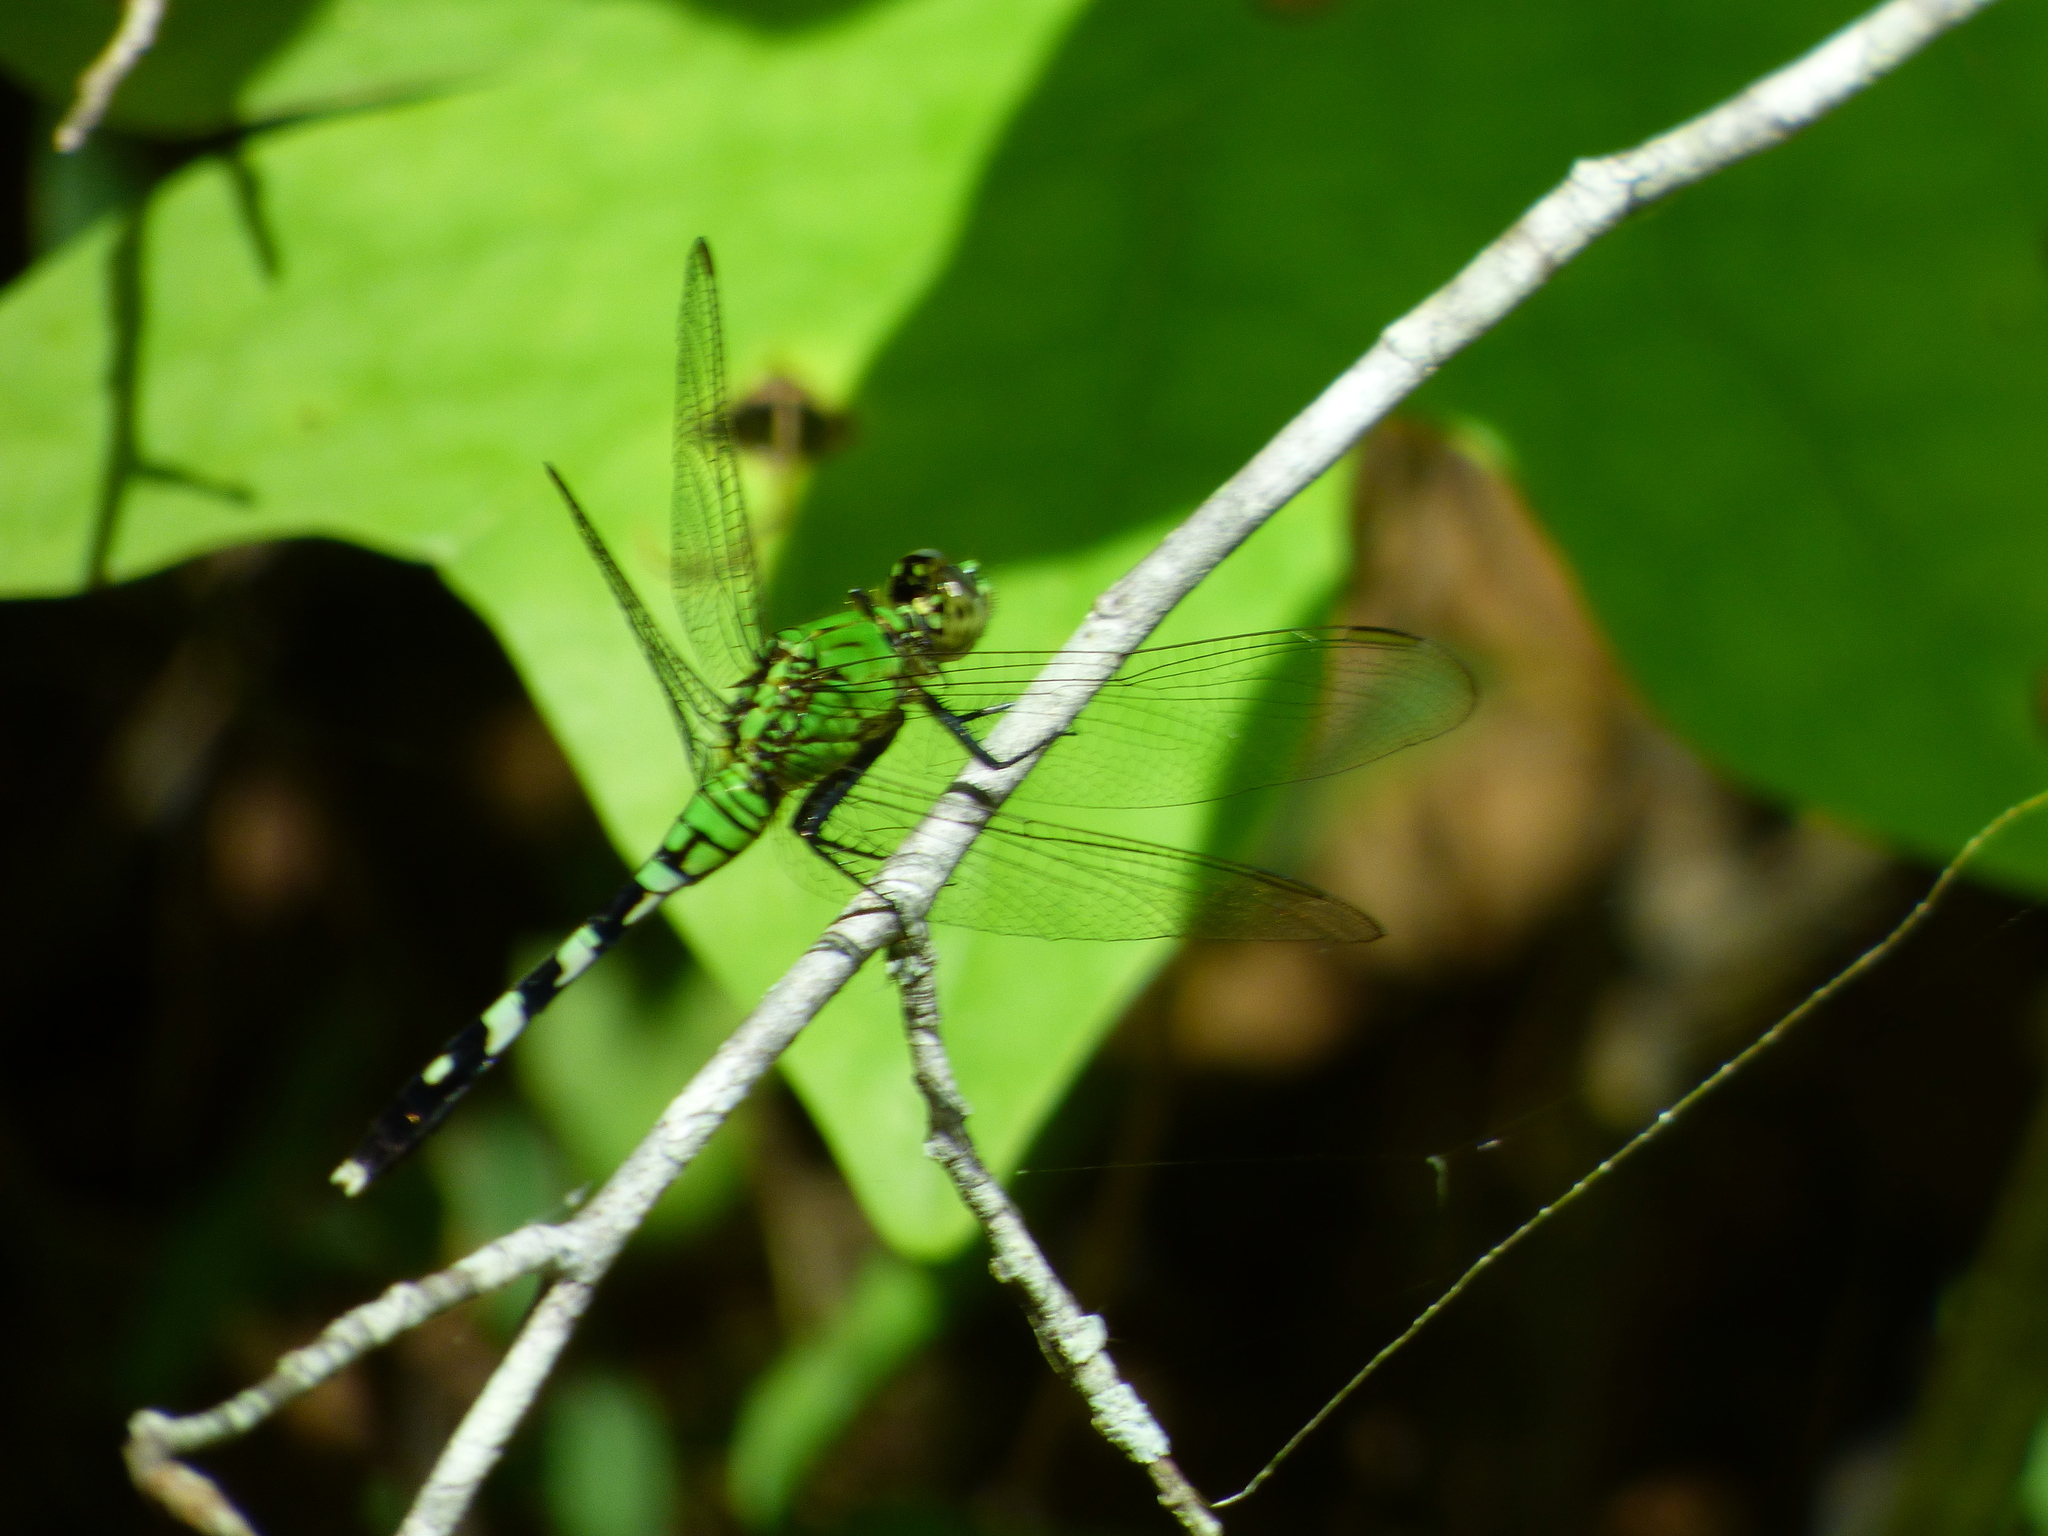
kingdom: Animalia
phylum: Arthropoda
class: Insecta
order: Odonata
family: Libellulidae
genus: Erythemis
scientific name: Erythemis simplicicollis
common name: Eastern pondhawk
